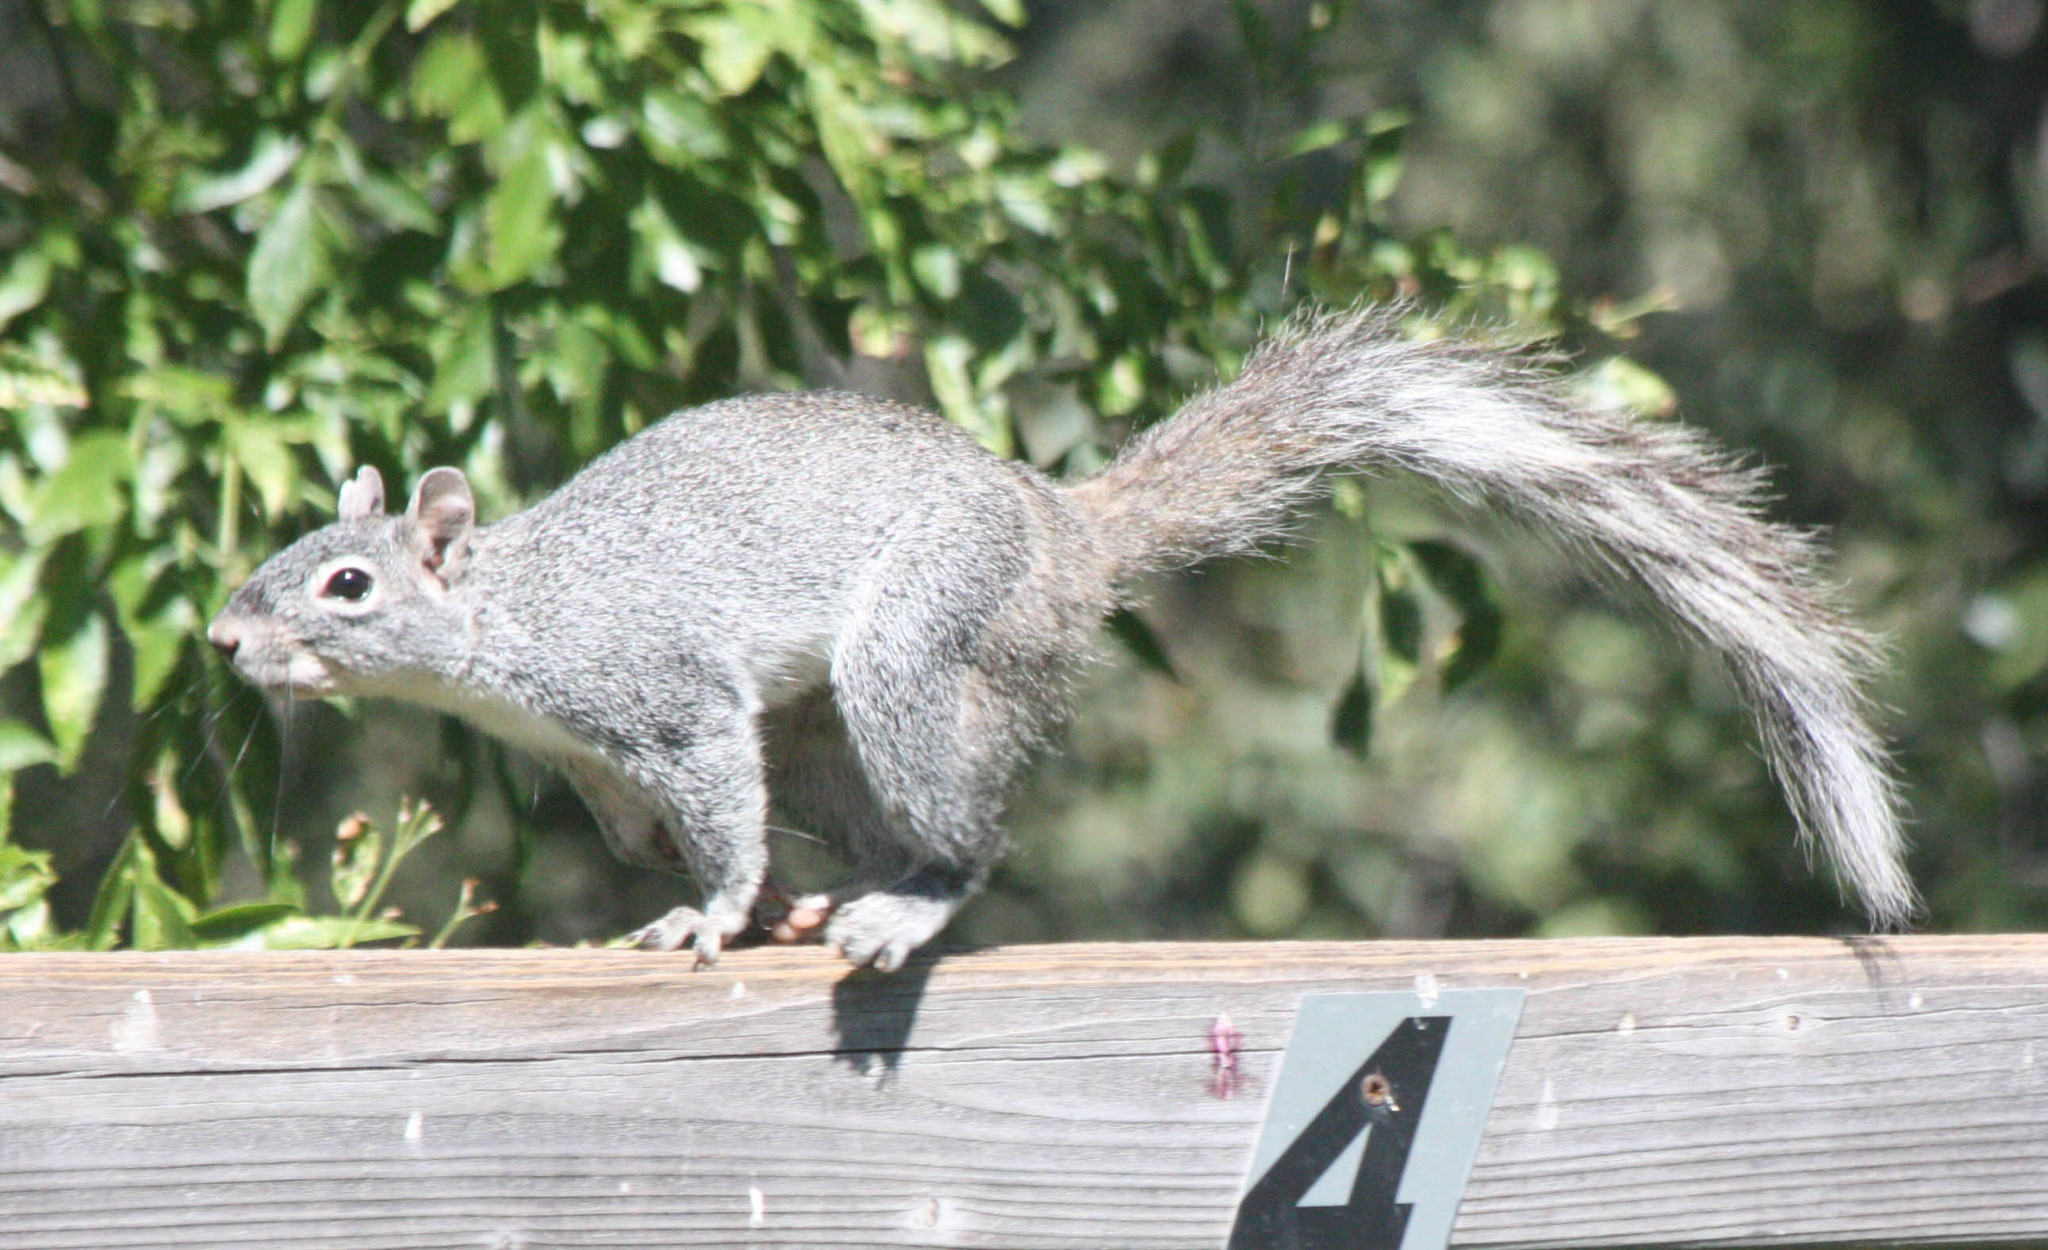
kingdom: Animalia
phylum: Chordata
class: Mammalia
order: Rodentia
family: Sciuridae
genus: Sciurus
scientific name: Sciurus arizonensis
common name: Arizona gray squirrel
